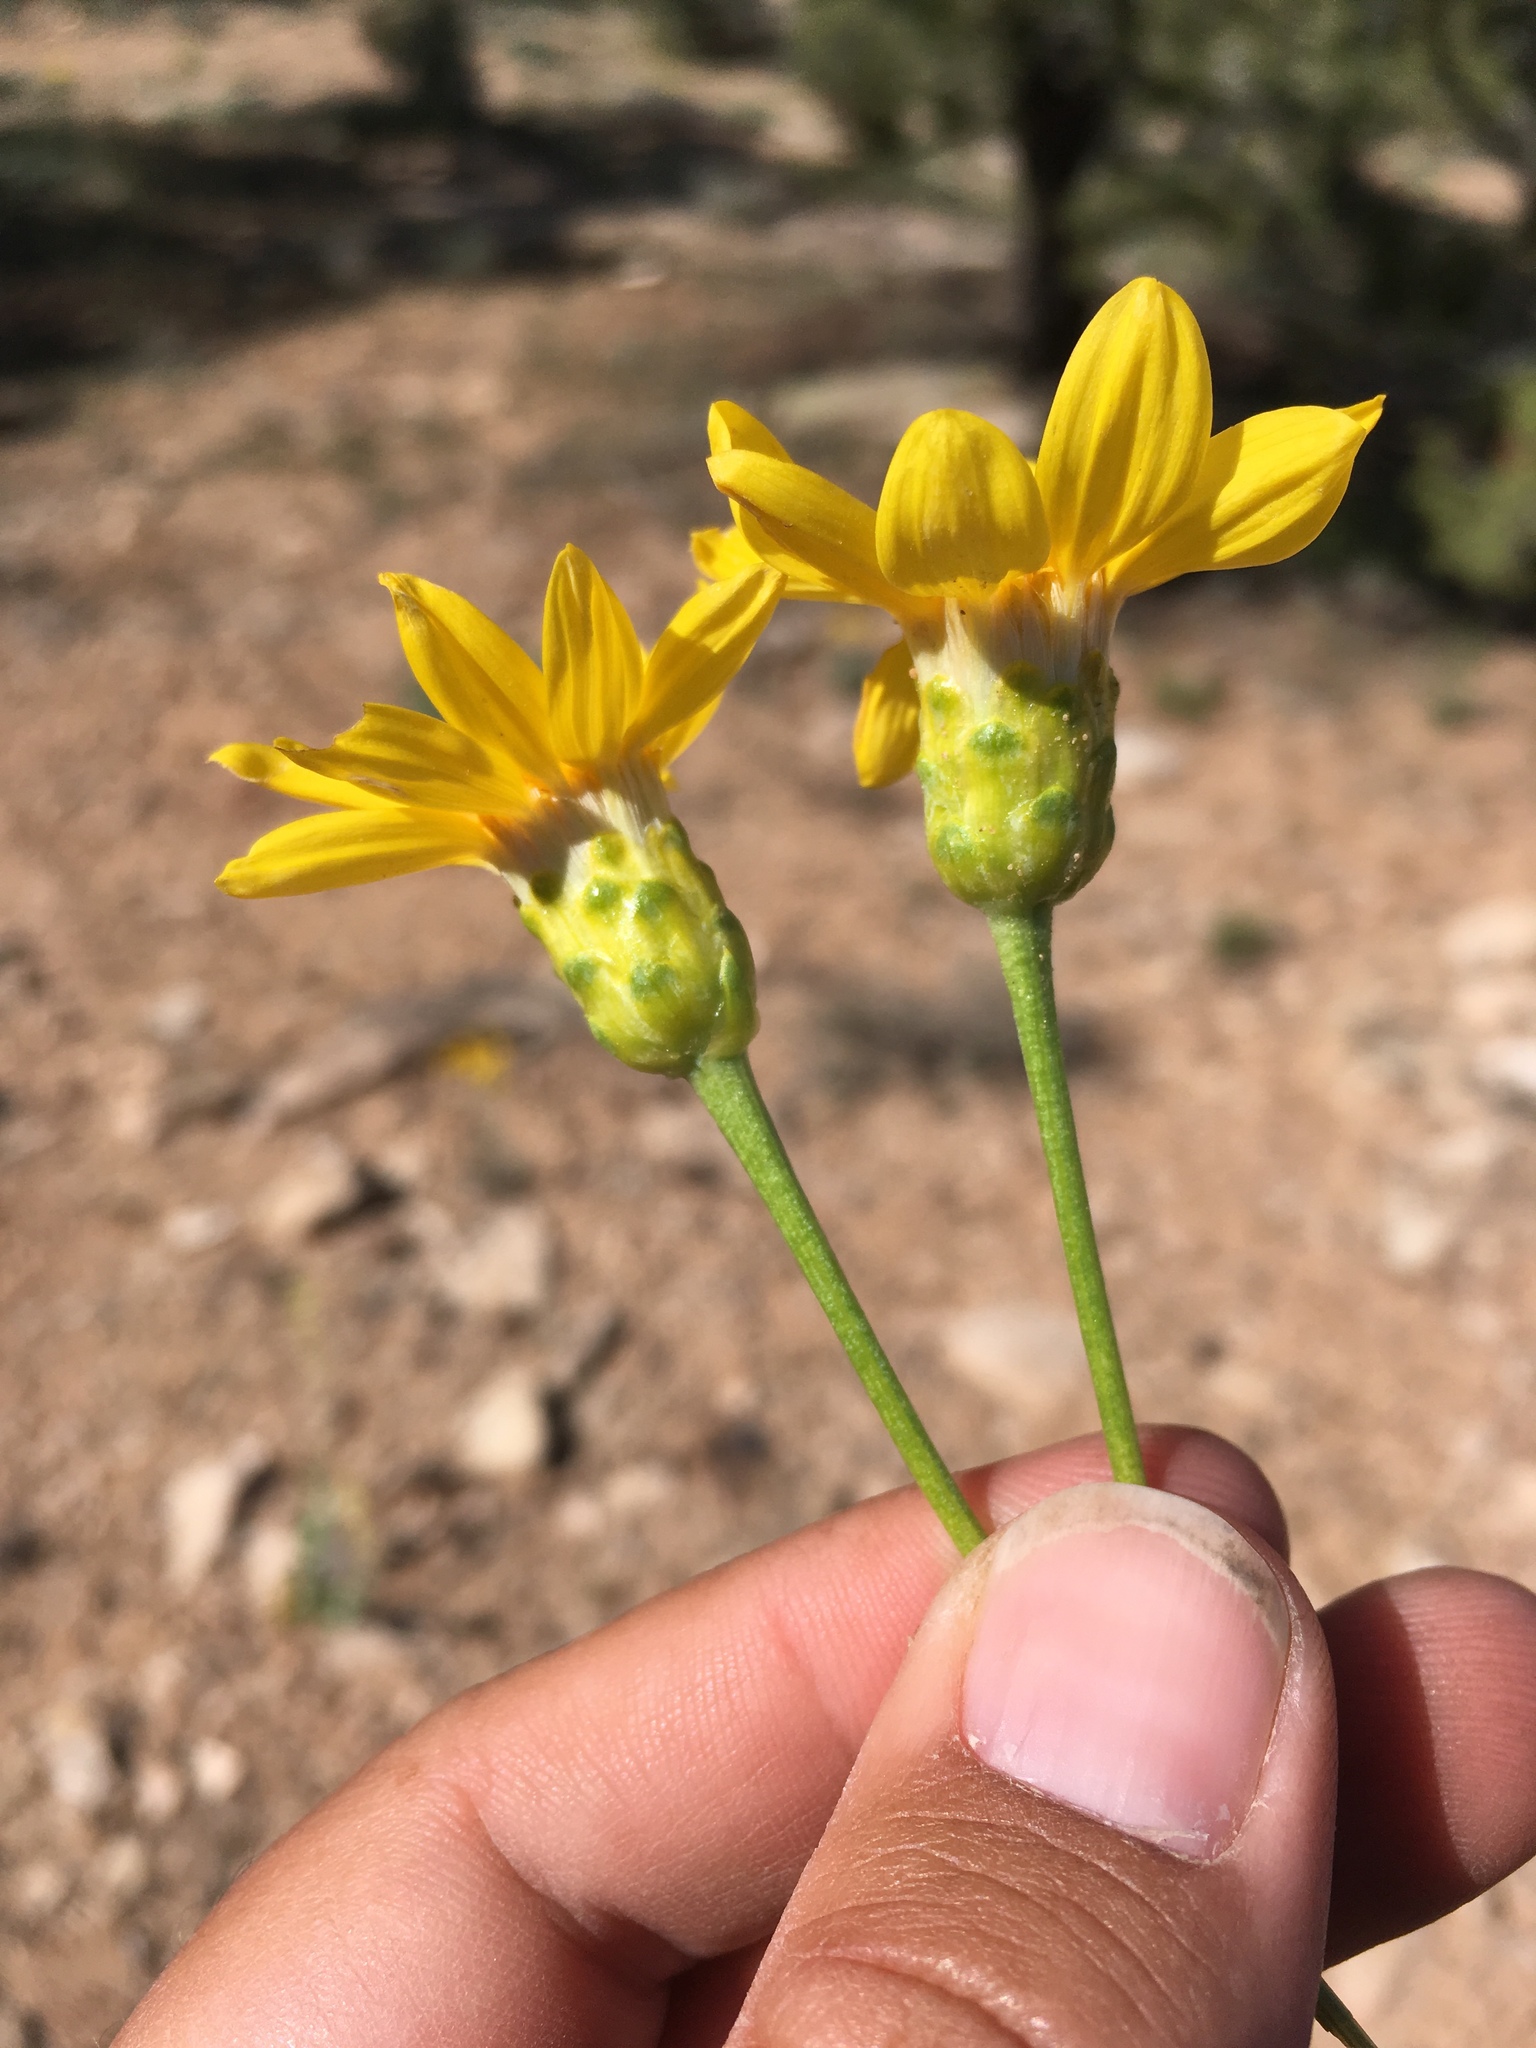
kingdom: Plantae
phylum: Tracheophyta
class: Magnoliopsida
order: Asterales
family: Asteraceae
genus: Stenotus
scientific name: Stenotus armerioides
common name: Thrifty goldenweed
